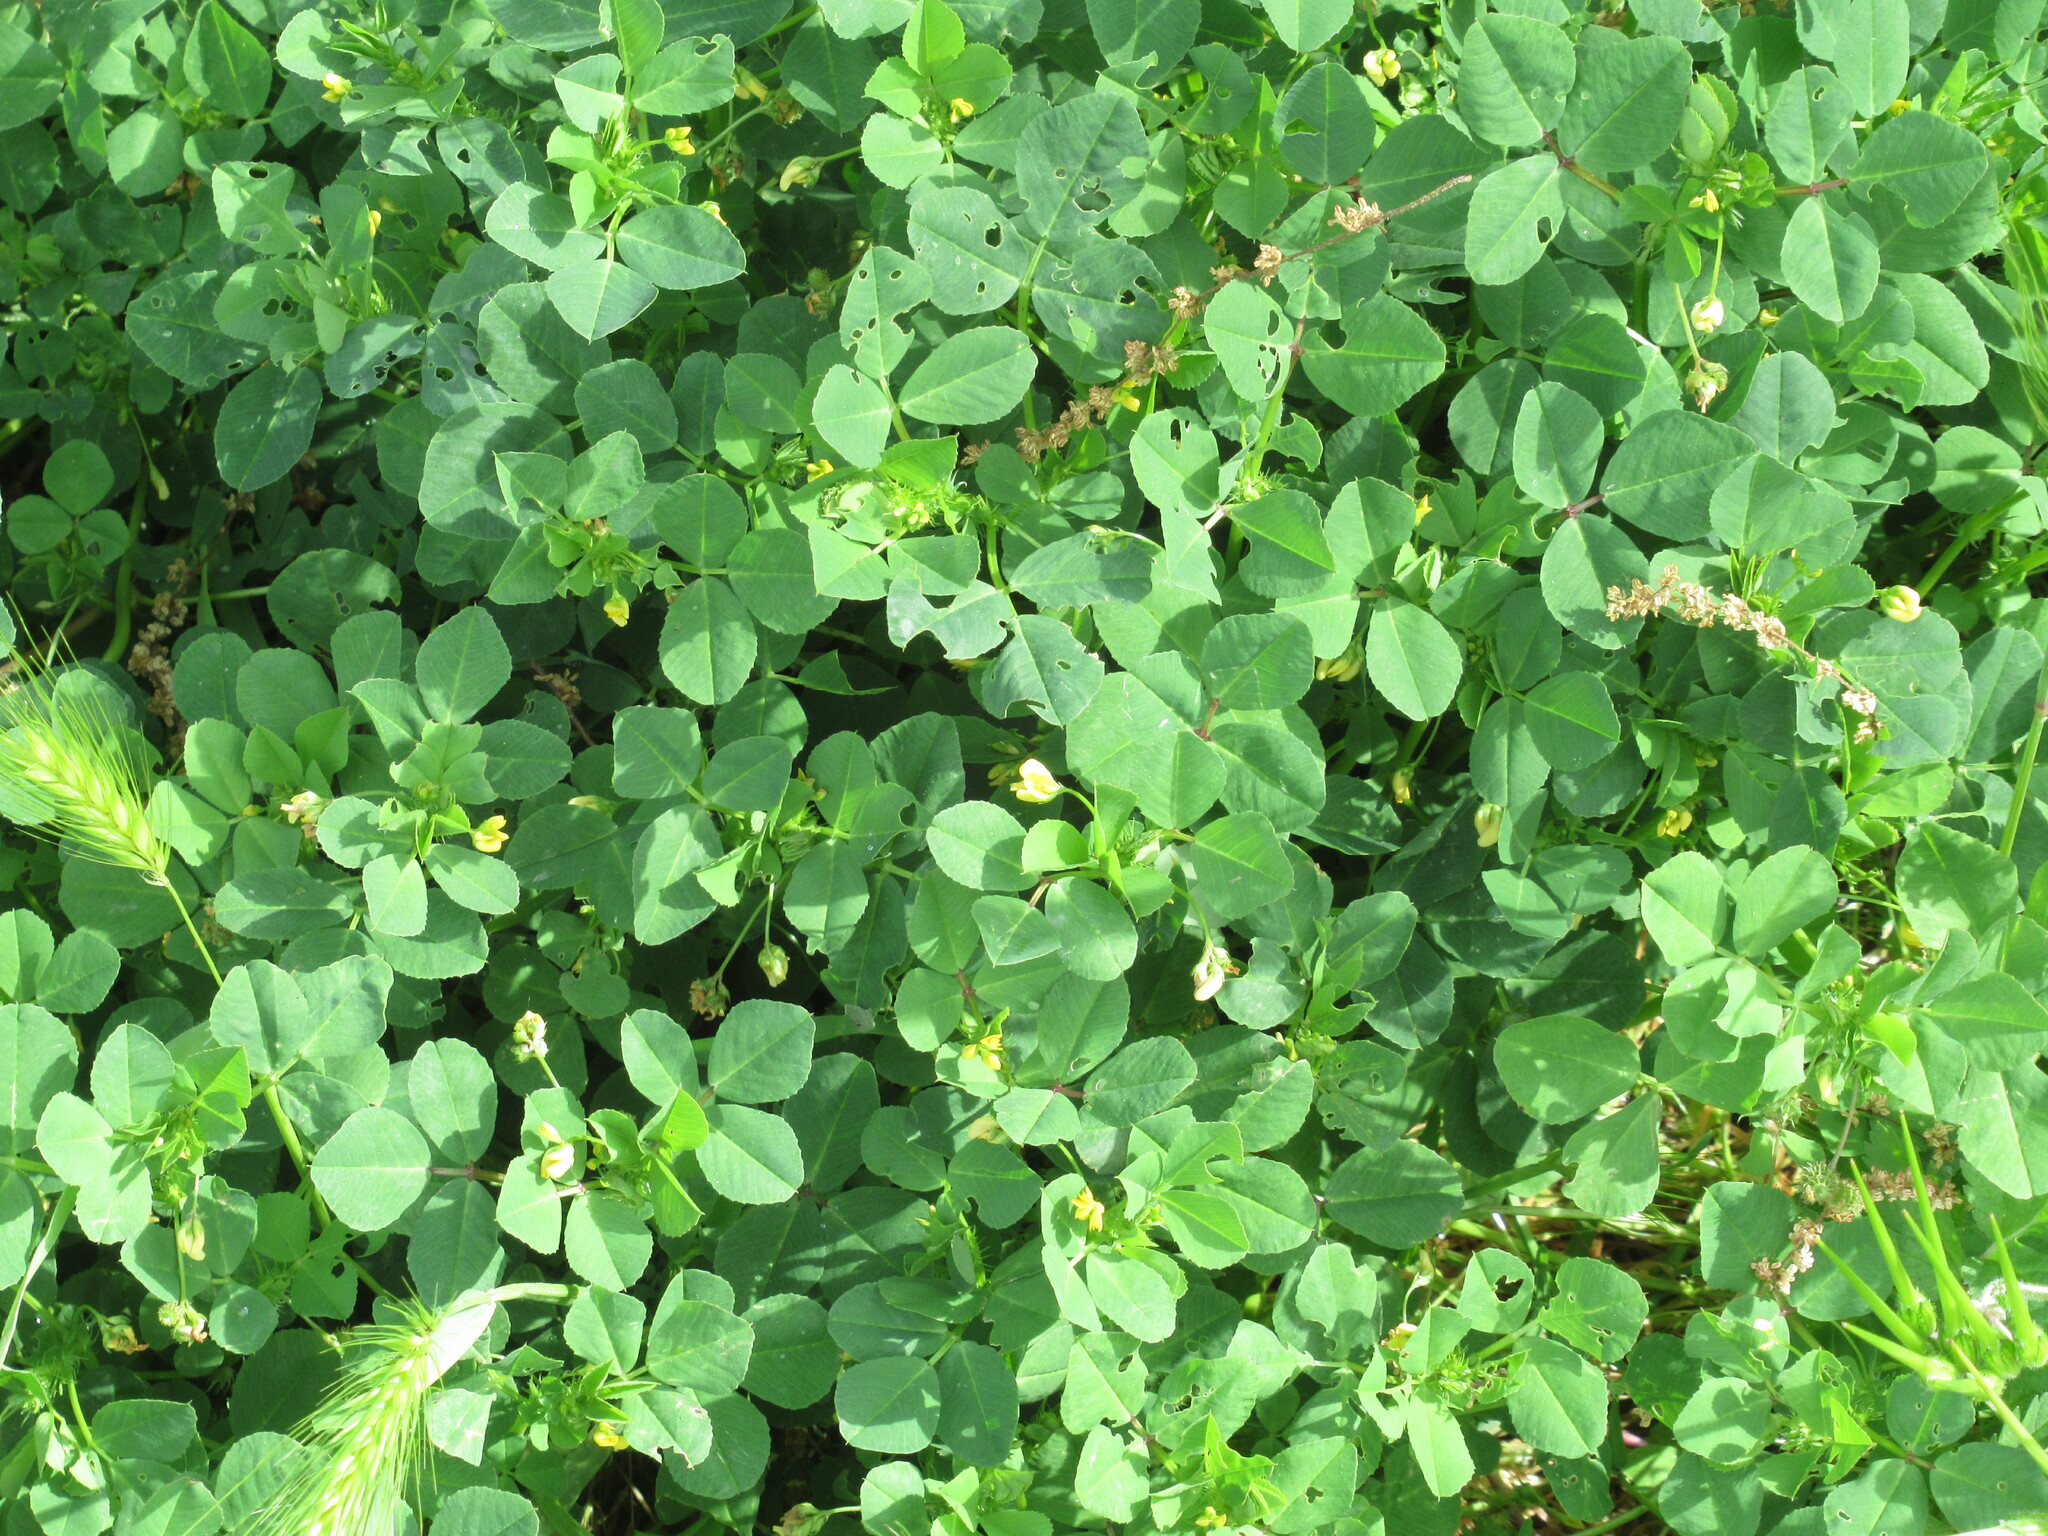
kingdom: Plantae
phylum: Tracheophyta
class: Magnoliopsida
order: Fabales
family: Fabaceae
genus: Medicago
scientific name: Medicago polymorpha
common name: Burclover
